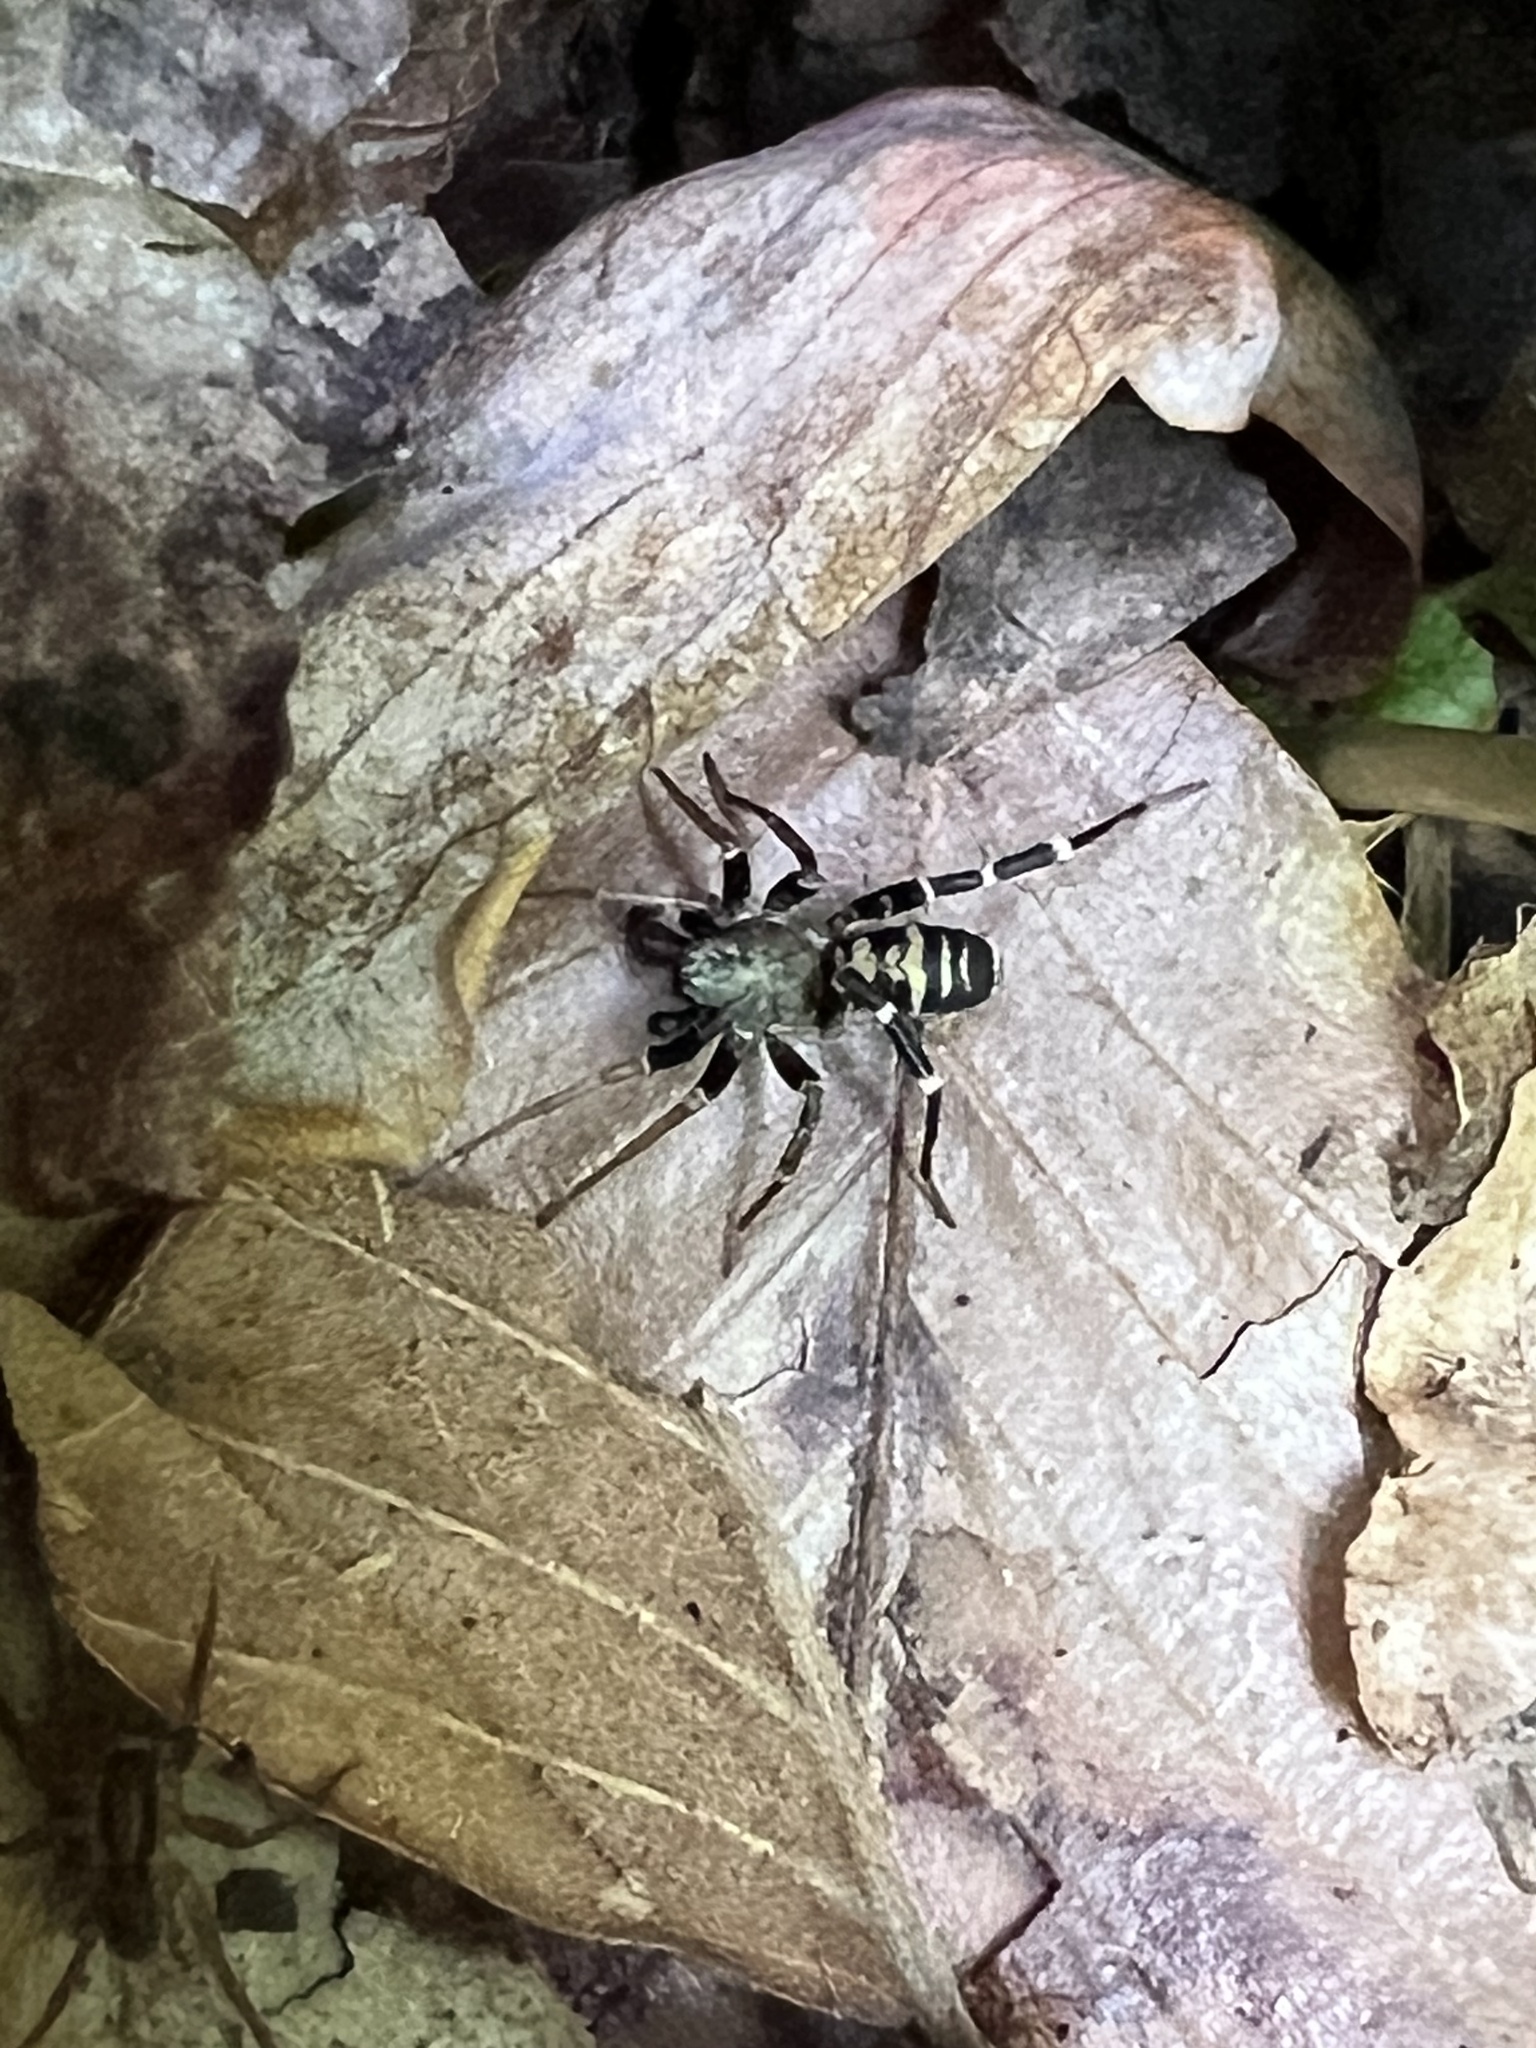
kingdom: Animalia
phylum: Arthropoda
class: Arachnida
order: Araneae
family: Corinnidae
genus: Castianeira
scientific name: Castianeira longipalpa
